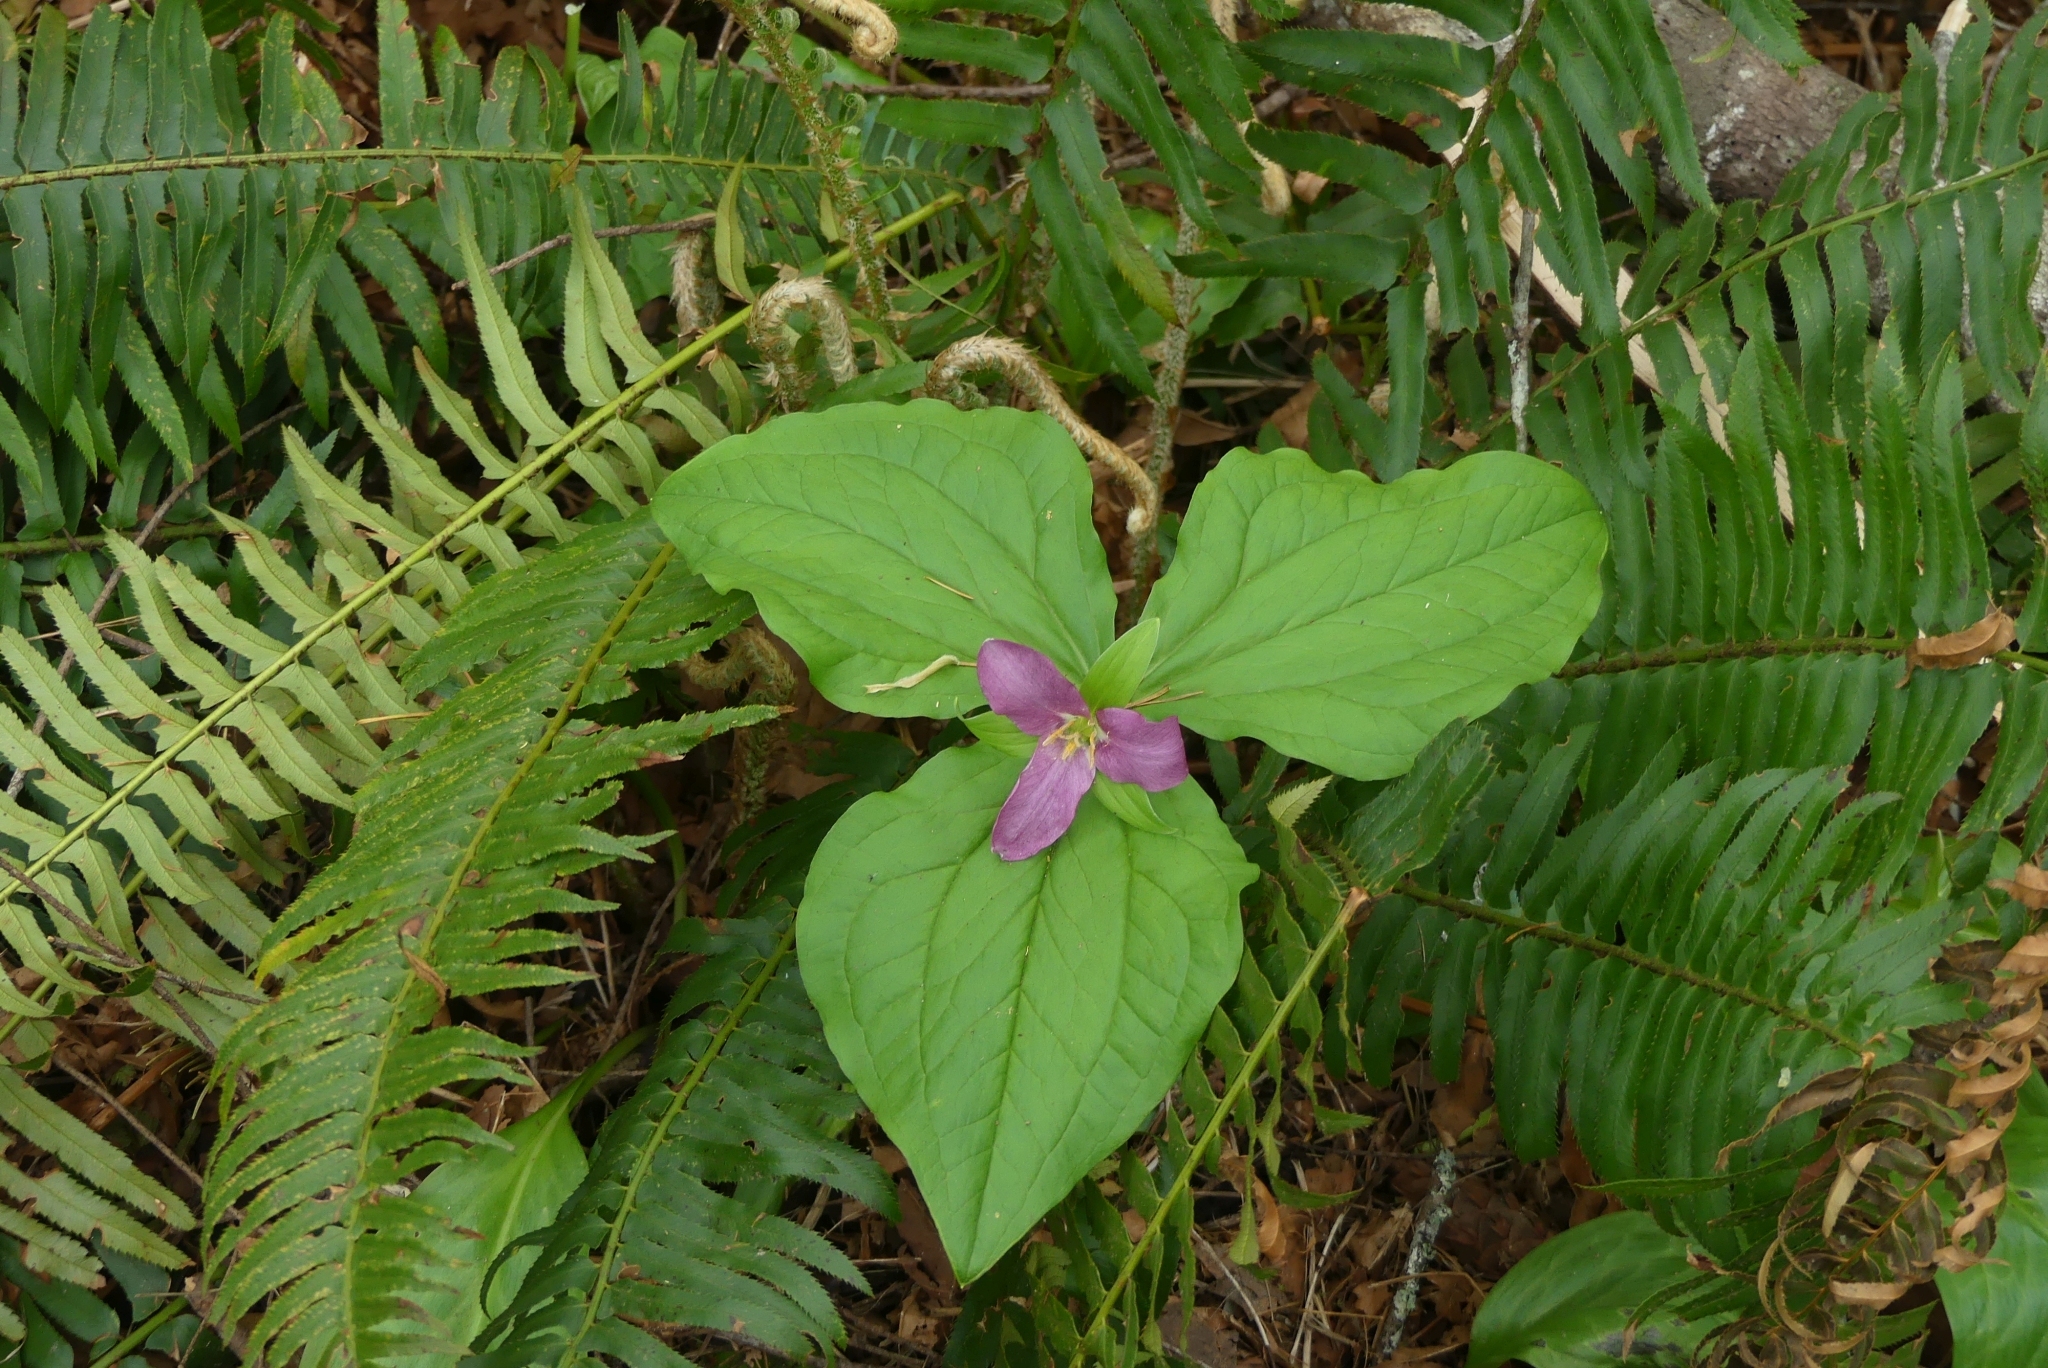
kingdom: Plantae
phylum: Tracheophyta
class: Liliopsida
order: Liliales
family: Melanthiaceae
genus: Trillium
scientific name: Trillium ovatum
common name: Pacific trillium
